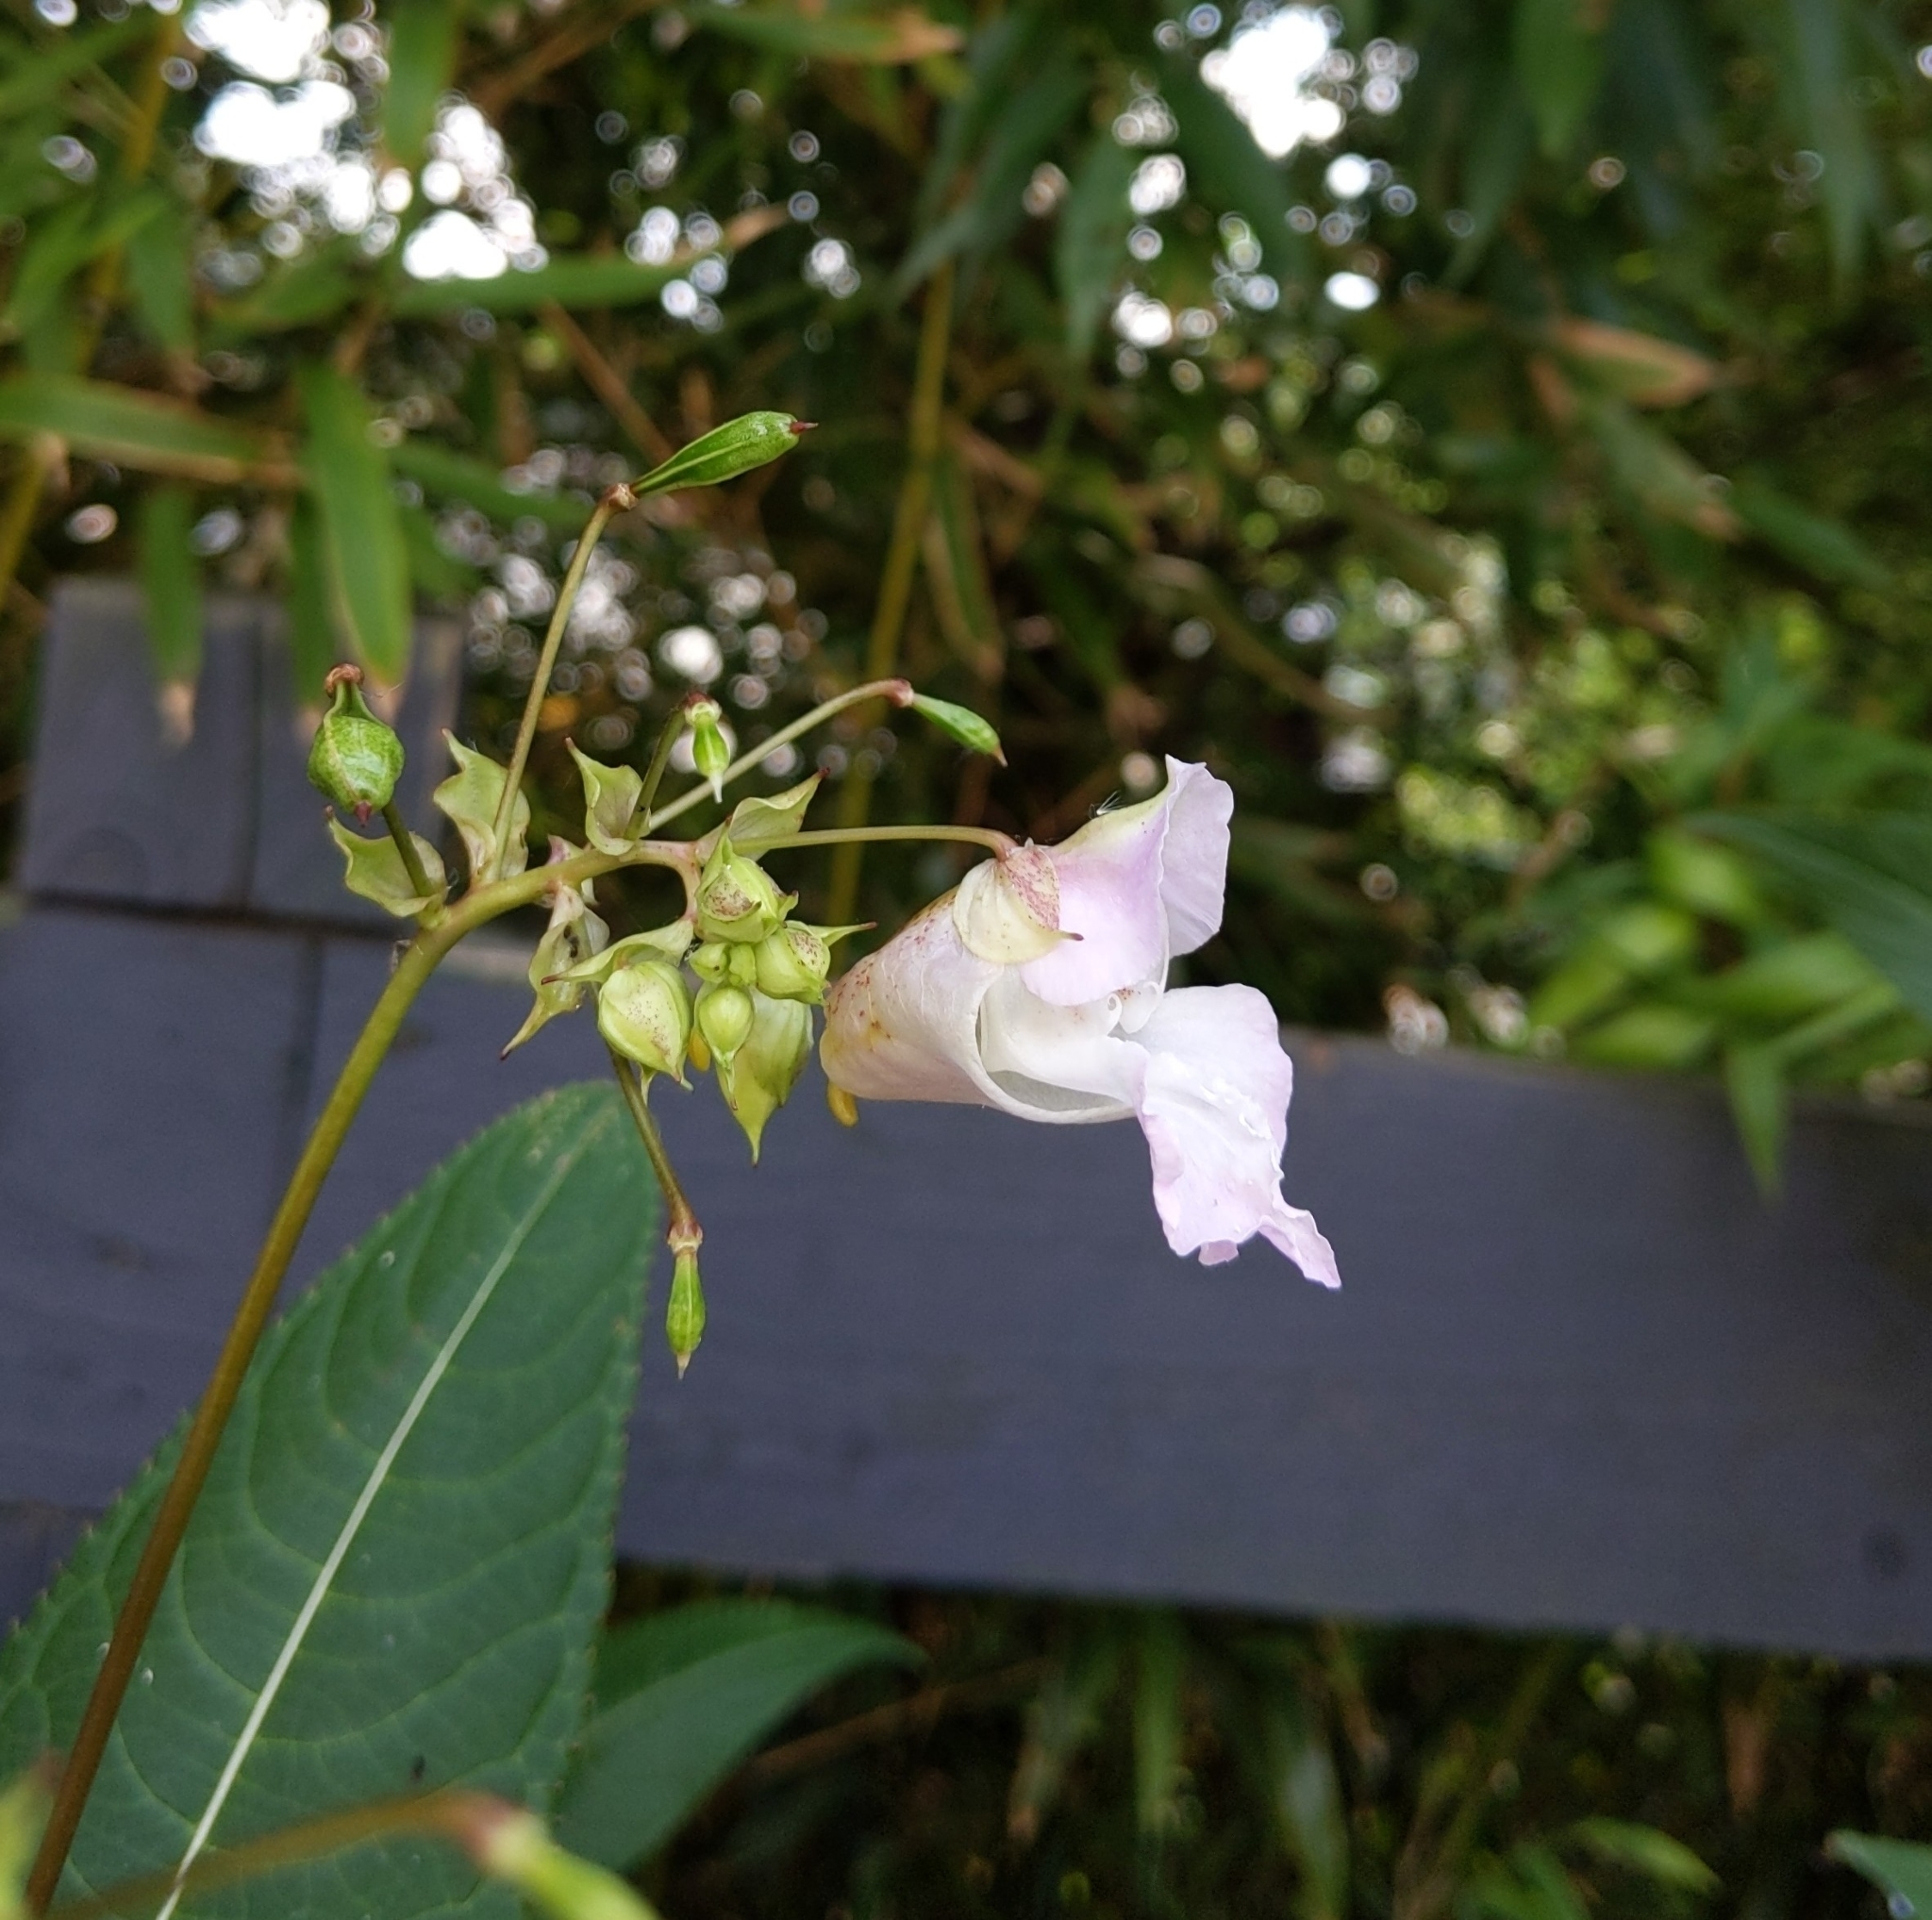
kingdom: Plantae
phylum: Tracheophyta
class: Magnoliopsida
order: Ericales
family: Balsaminaceae
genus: Impatiens
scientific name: Impatiens glandulifera
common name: Himalayan balsam
